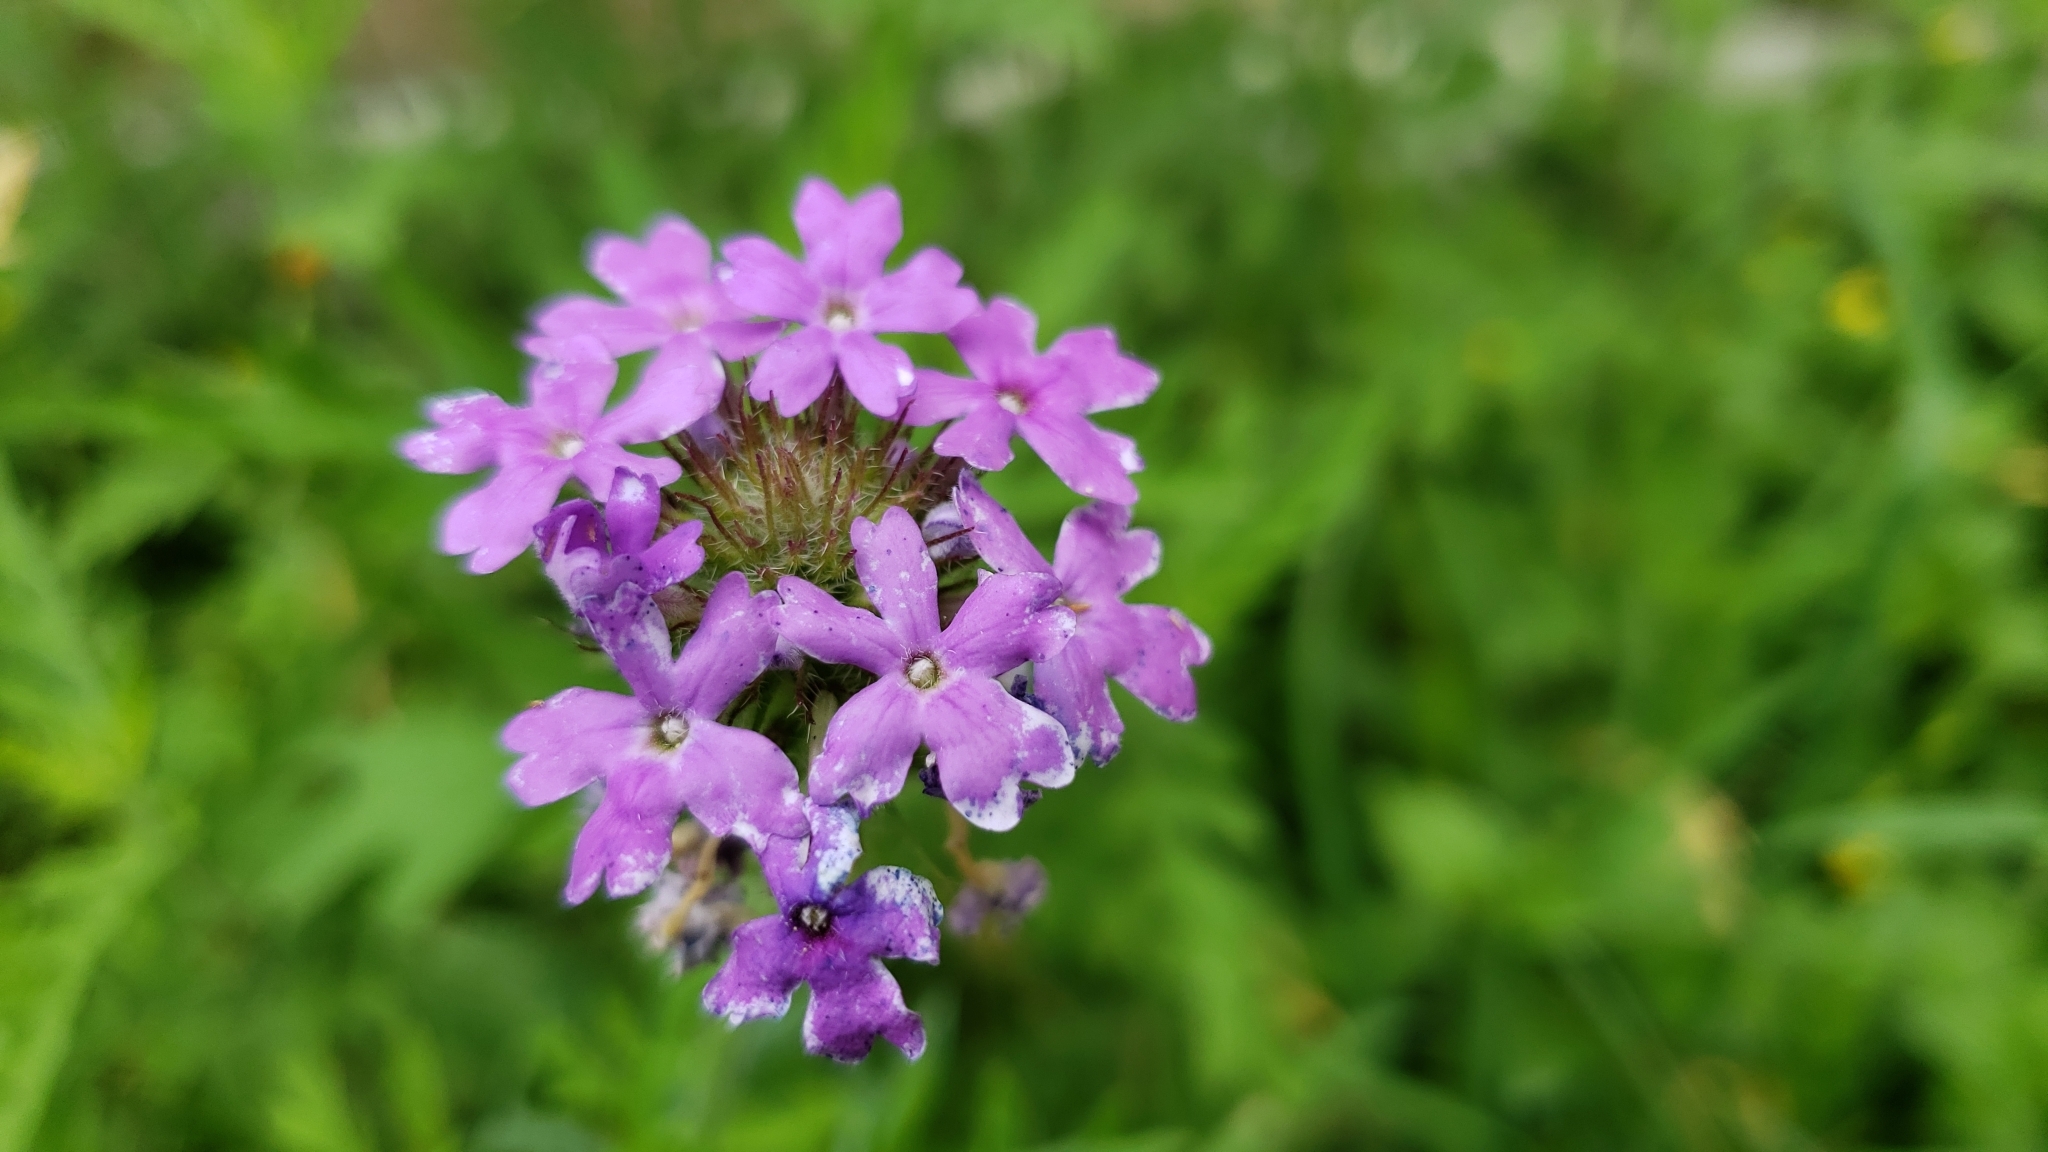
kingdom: Plantae
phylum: Tracheophyta
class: Magnoliopsida
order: Lamiales
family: Verbenaceae
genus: Verbena
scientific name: Verbena bipinnatifida
